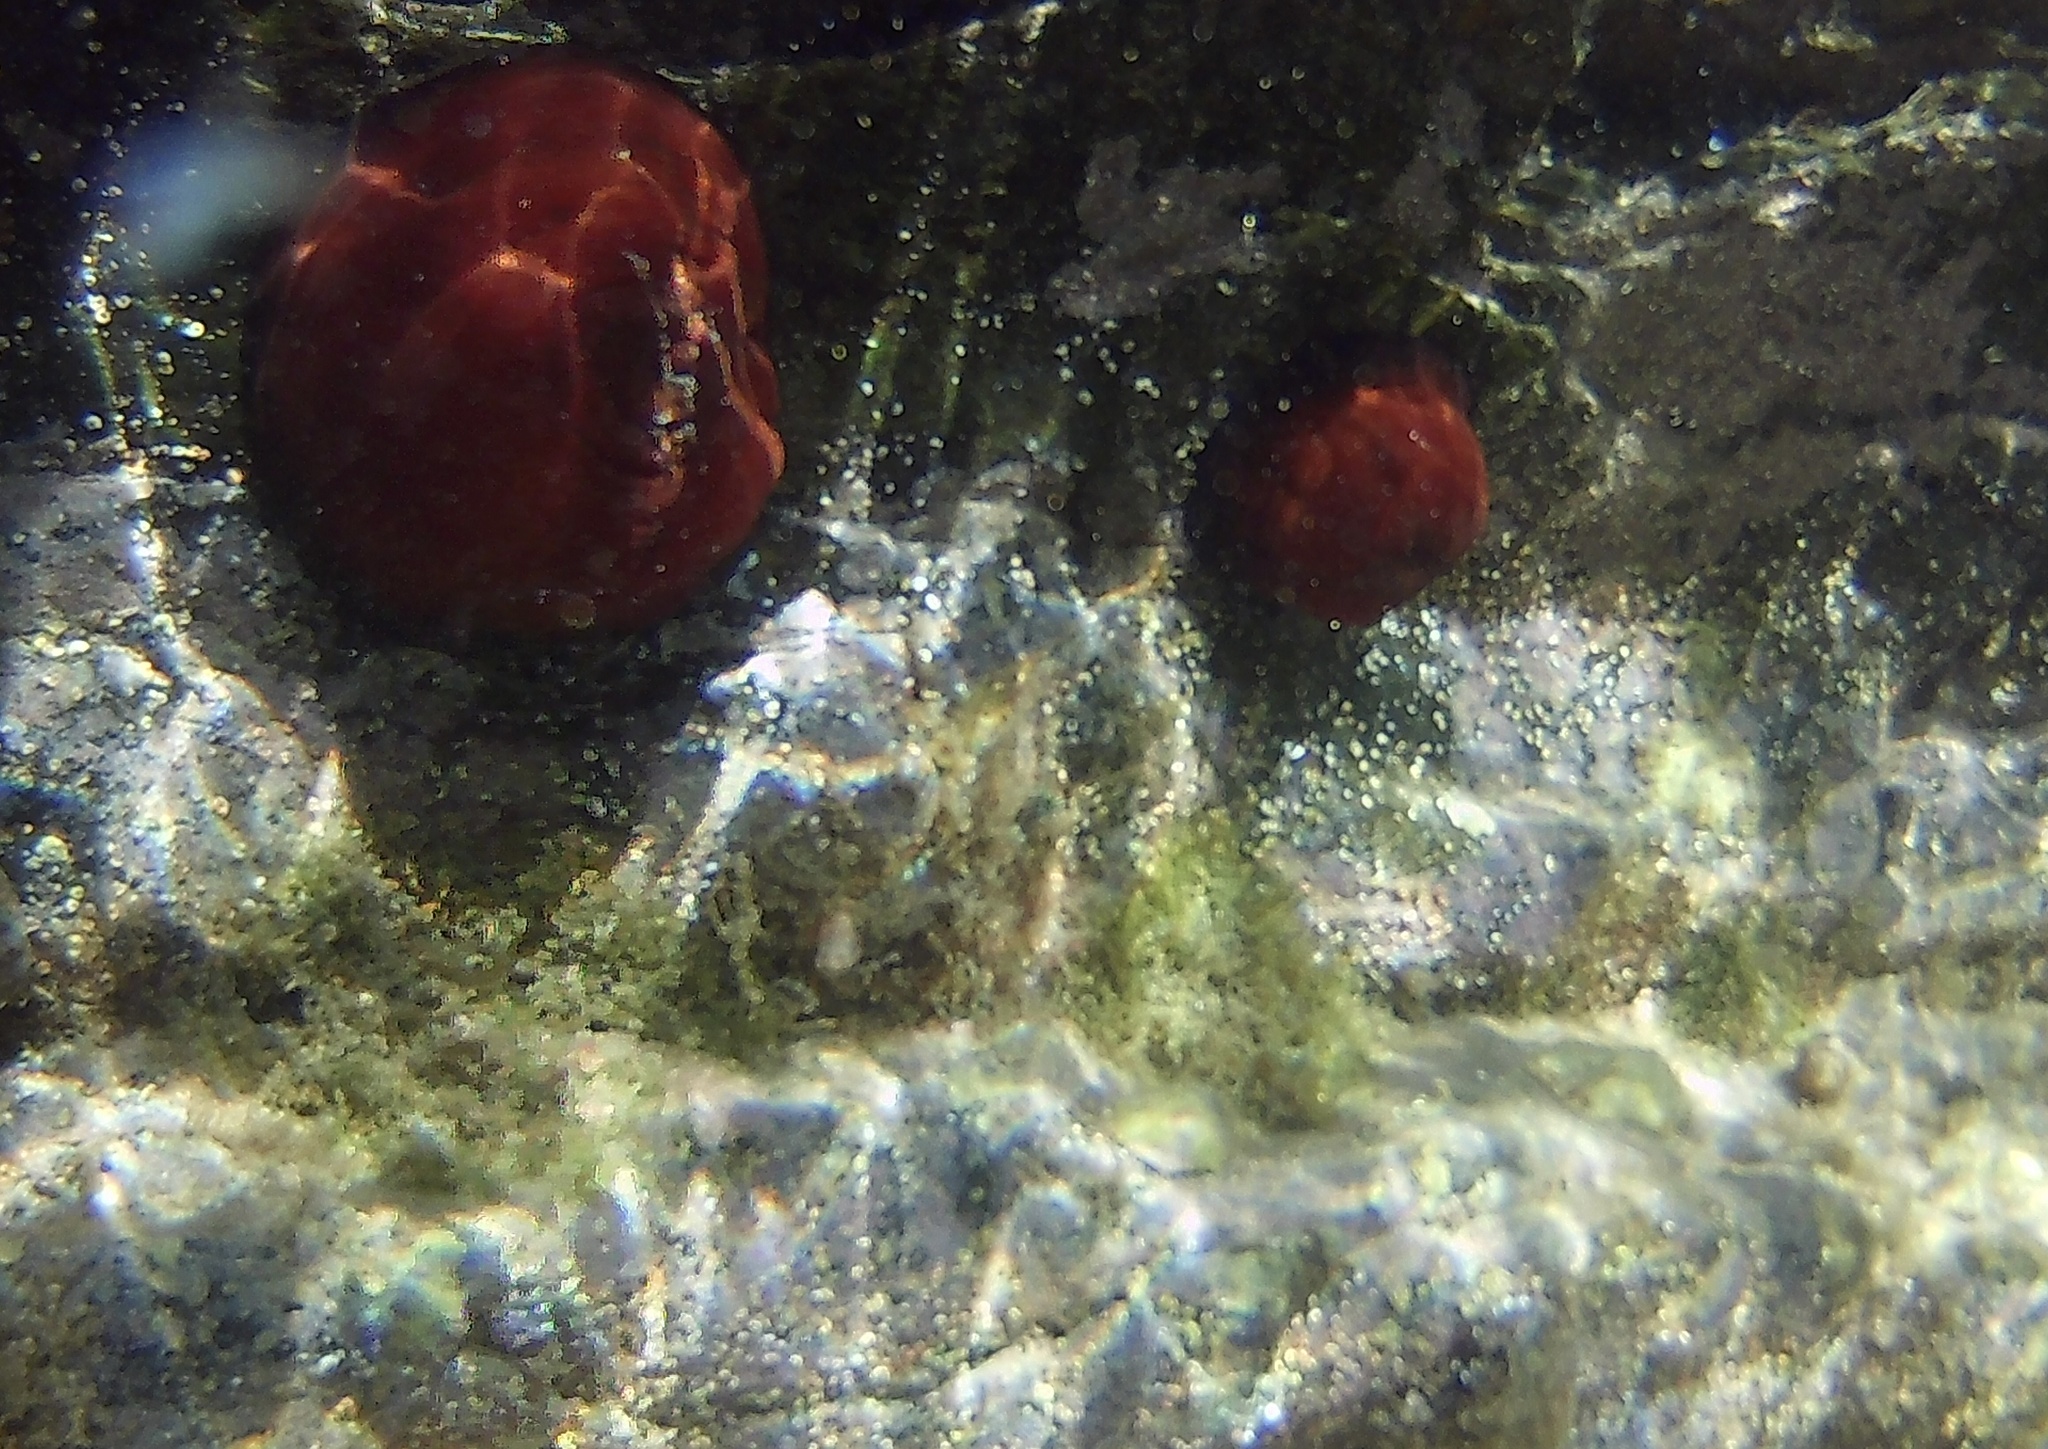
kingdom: Animalia
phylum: Cnidaria
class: Anthozoa
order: Actiniaria
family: Actiniidae
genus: Actinia
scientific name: Actinia mediterranea
